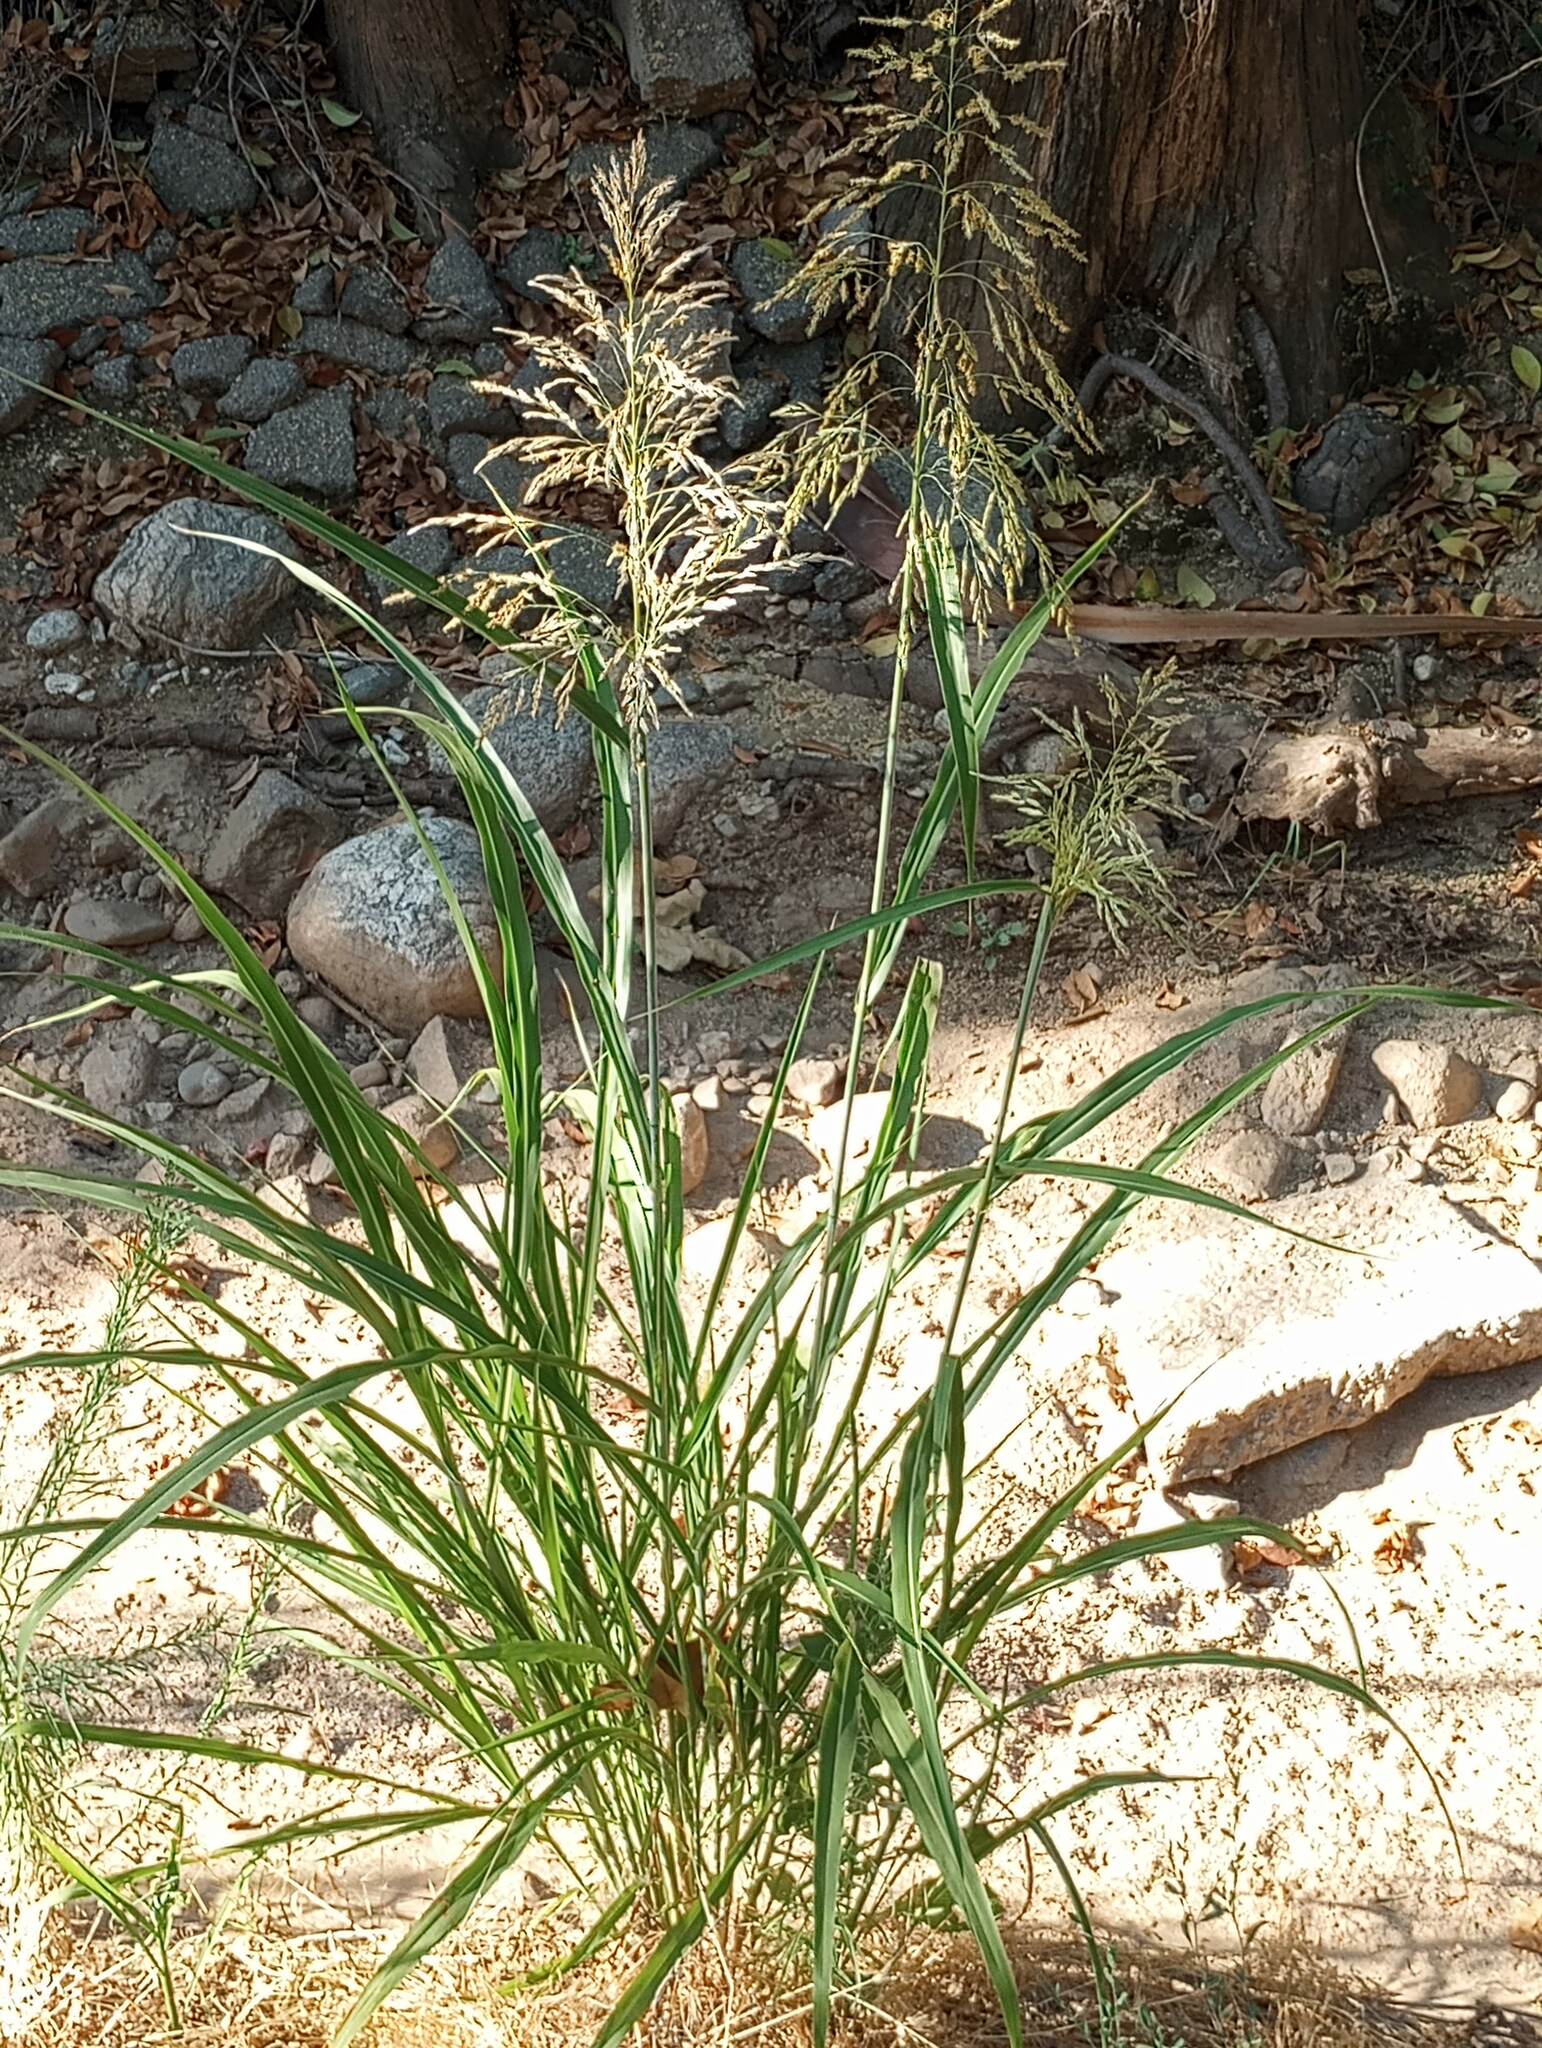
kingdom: Plantae
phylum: Tracheophyta
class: Liliopsida
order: Poales
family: Poaceae
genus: Sorghum
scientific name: Sorghum halepense
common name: Johnson-grass
